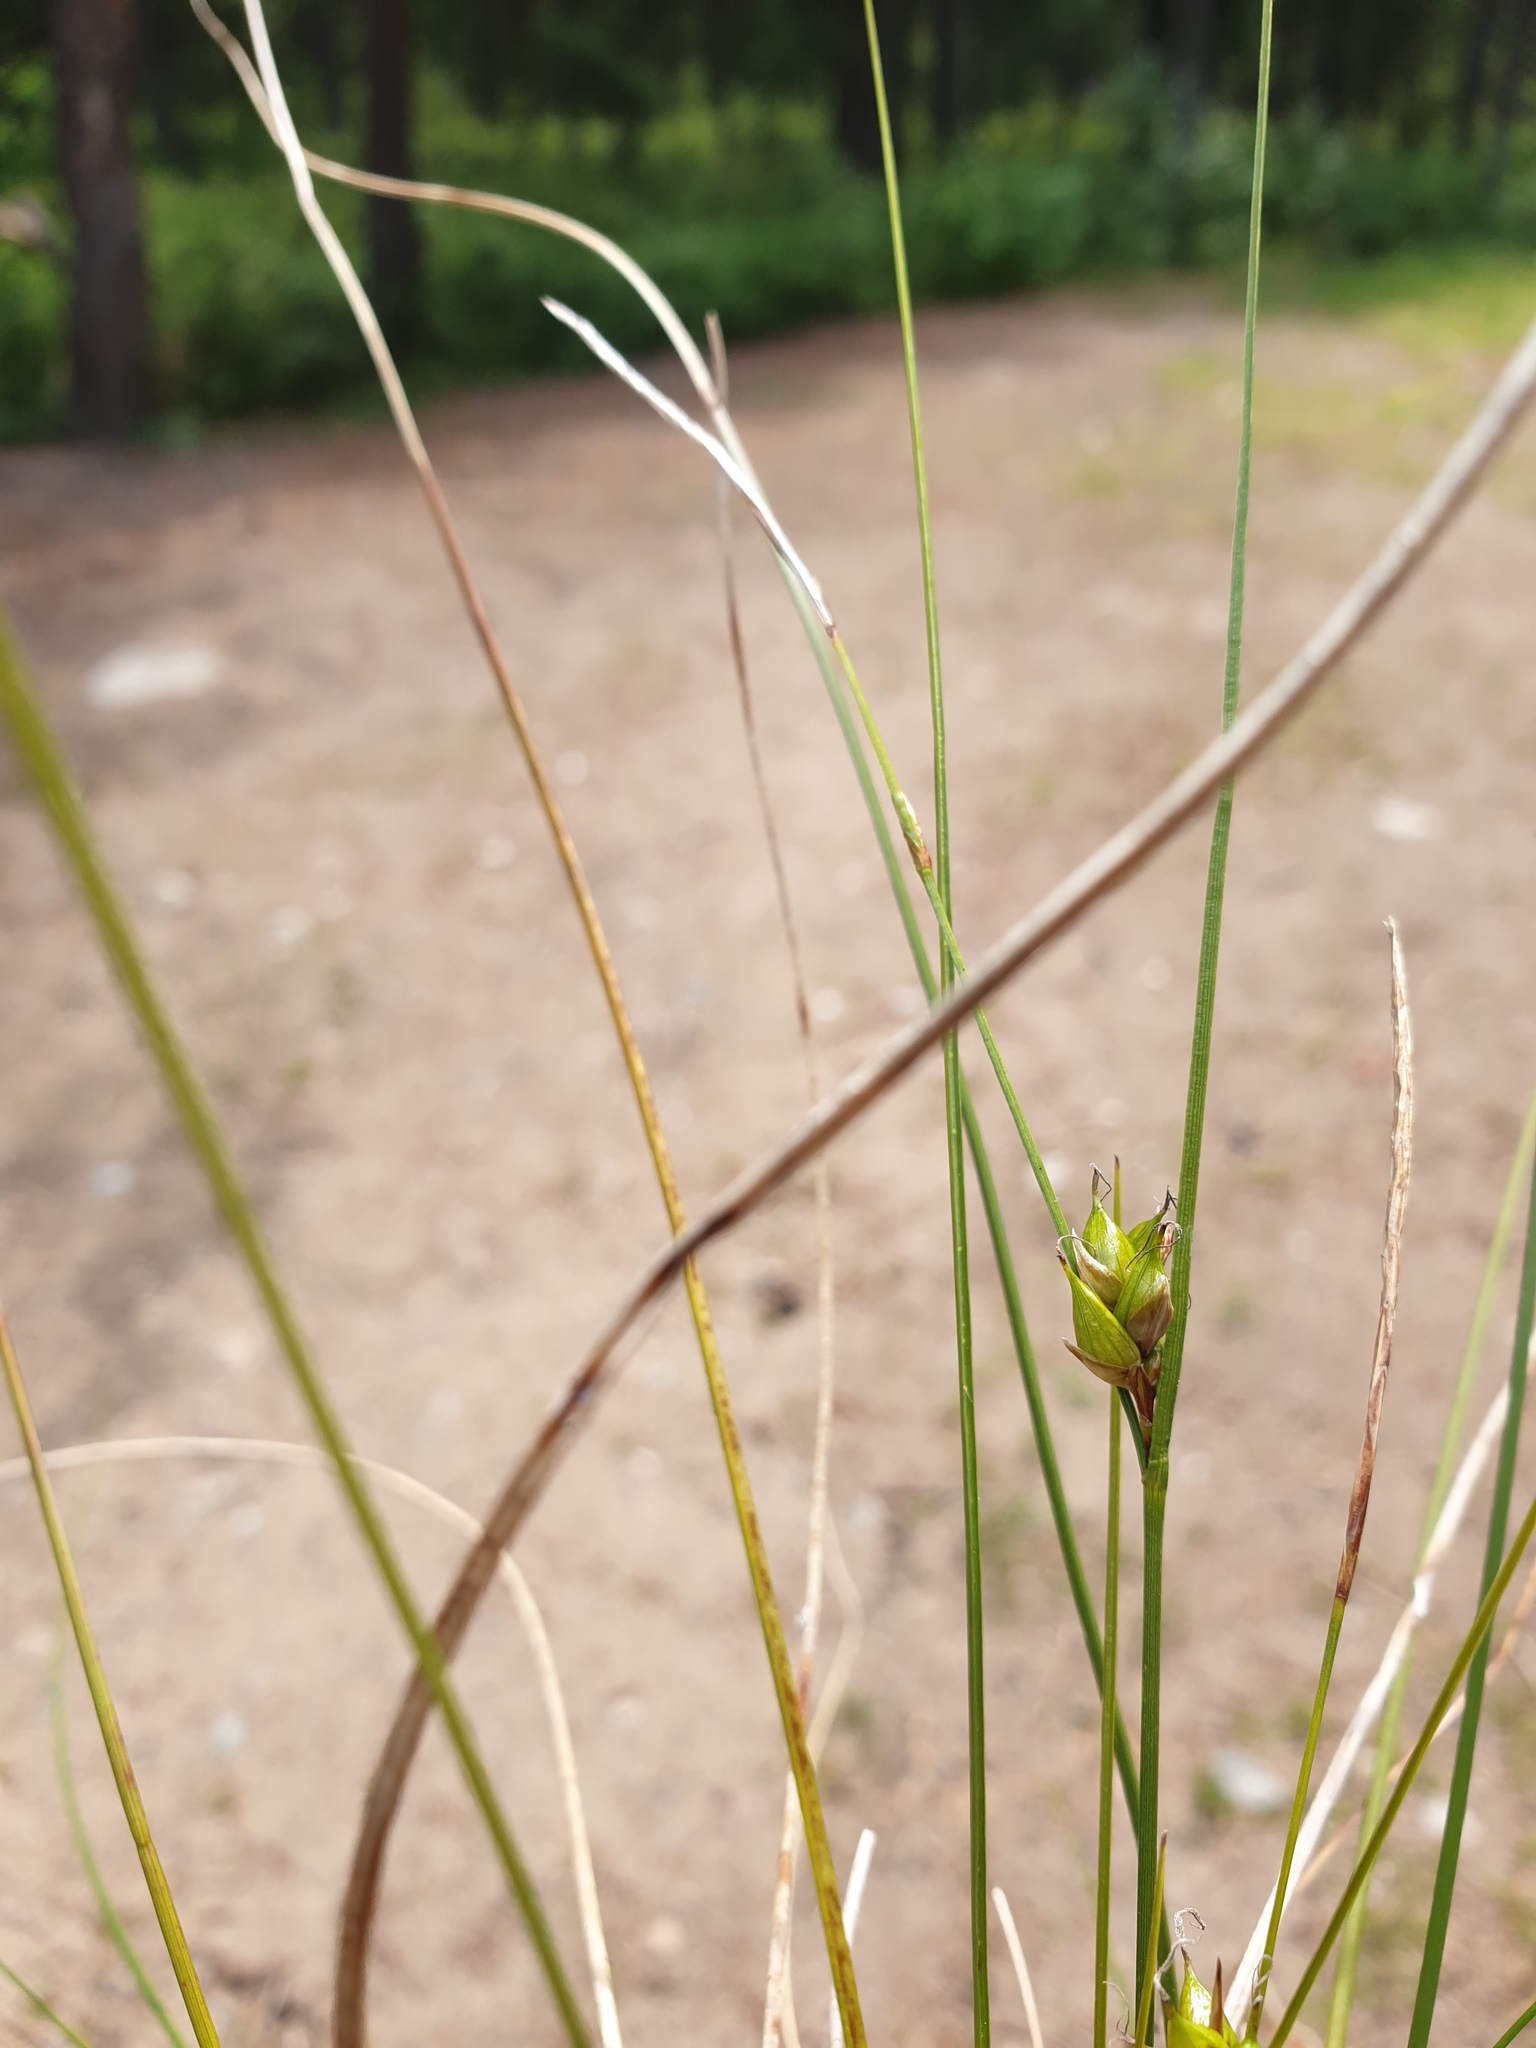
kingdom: Plantae
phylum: Tracheophyta
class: Liliopsida
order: Poales
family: Cyperaceae
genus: Carex
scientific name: Carex oligosperma
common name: Few-seed sedge
